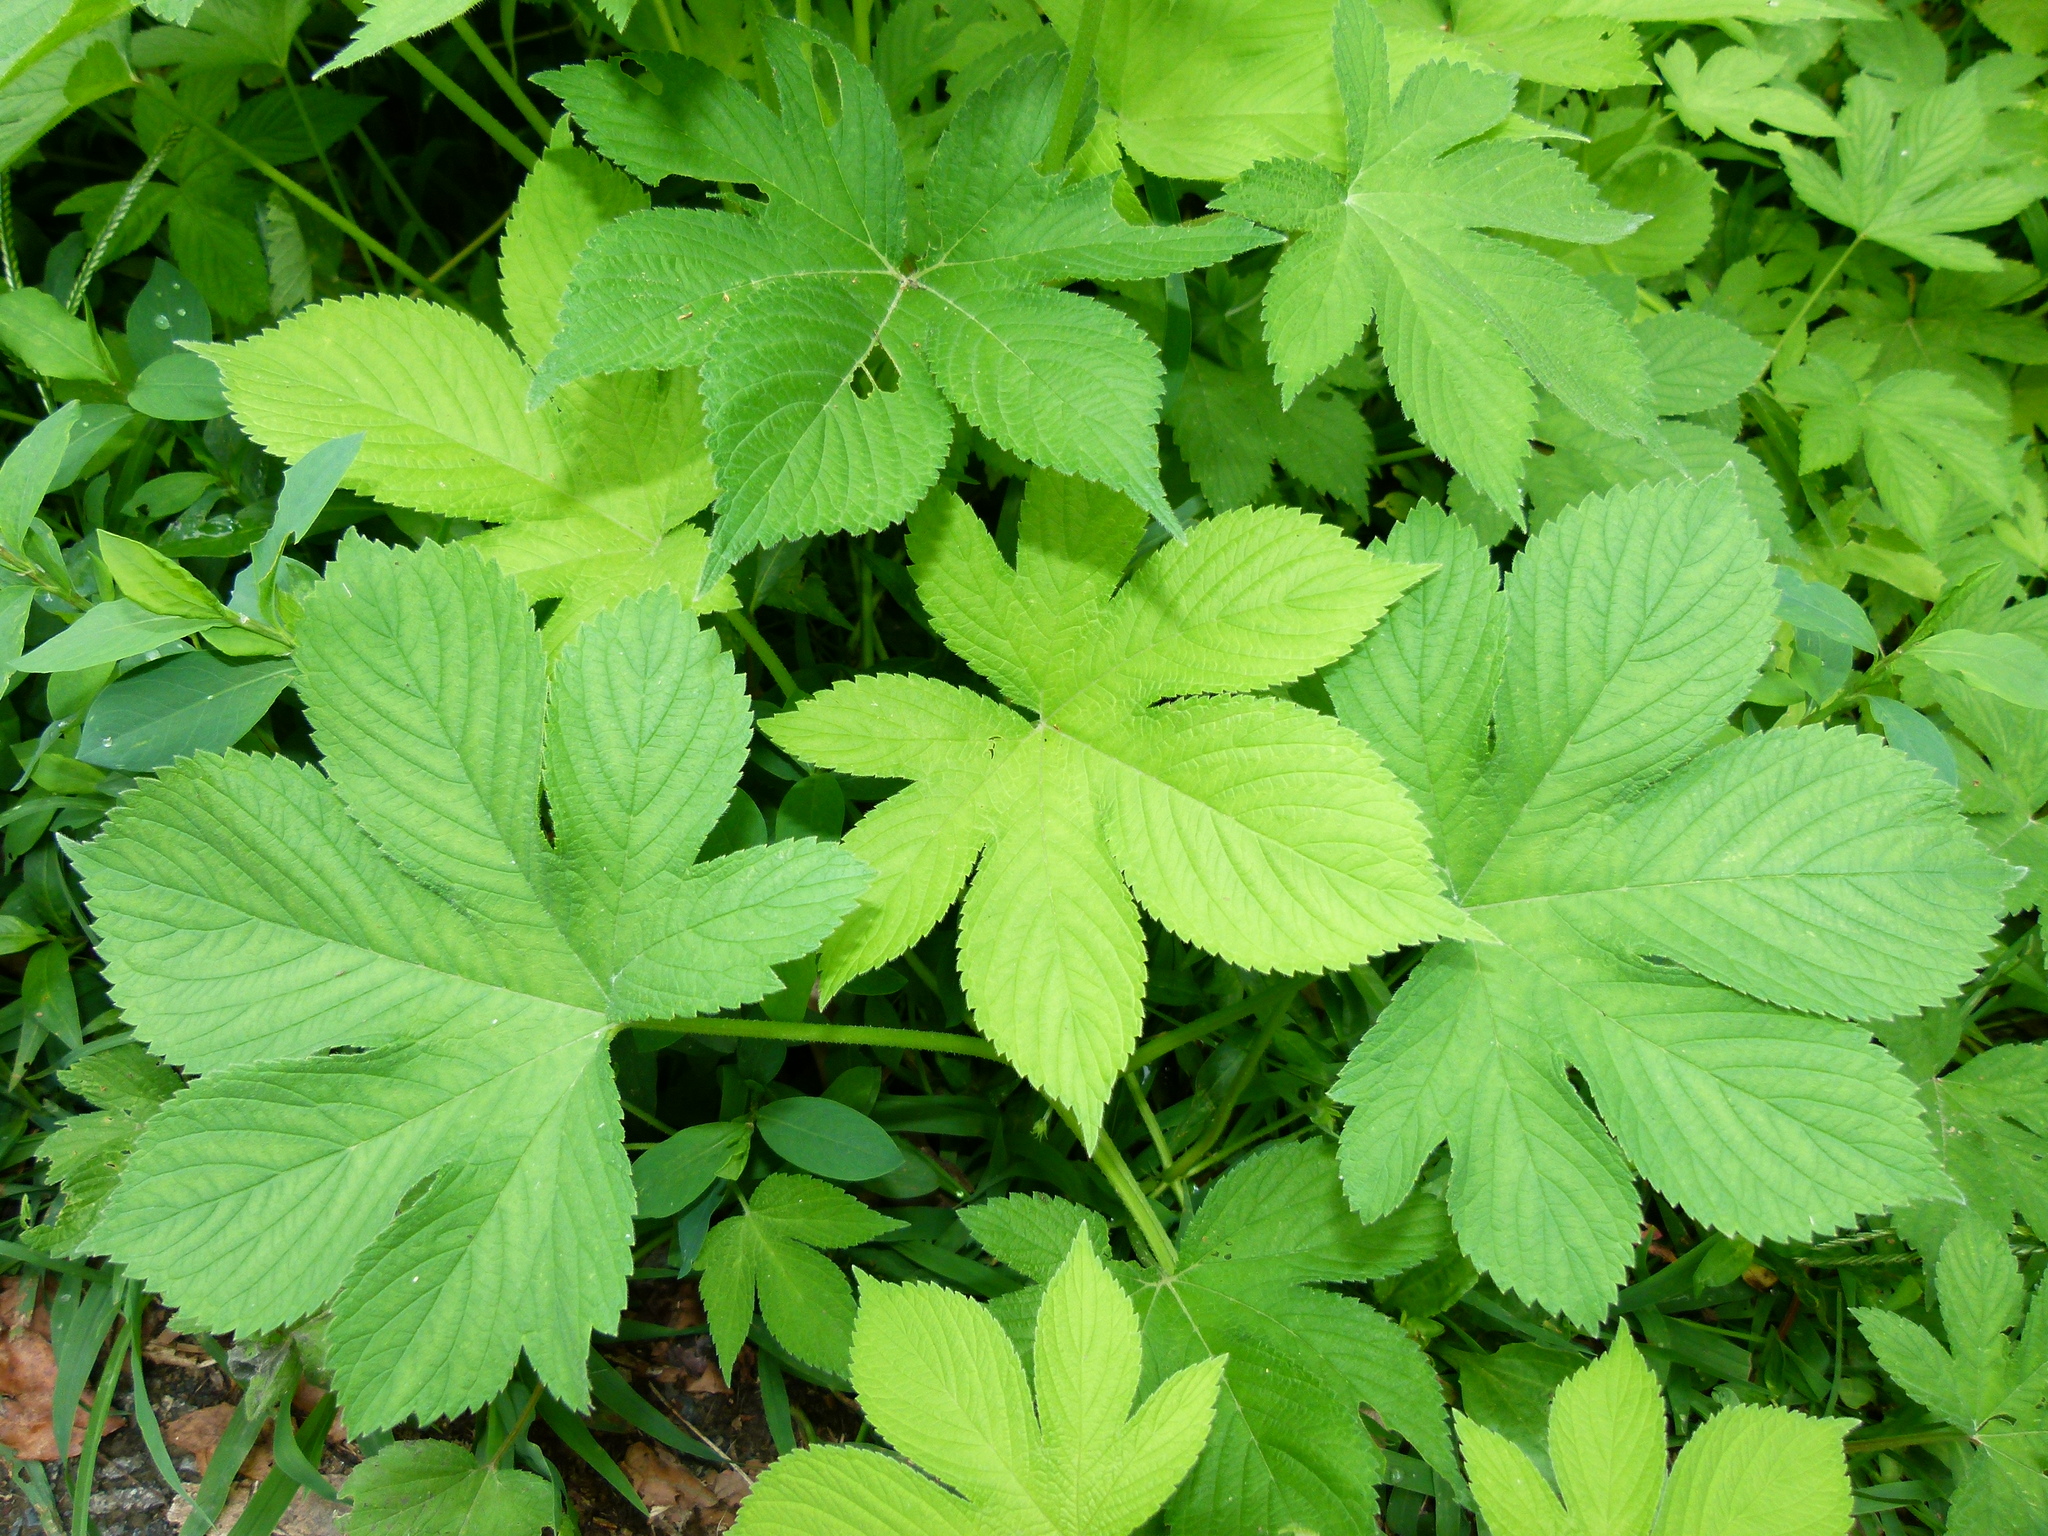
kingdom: Plantae
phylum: Tracheophyta
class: Magnoliopsida
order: Rosales
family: Cannabaceae
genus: Humulus
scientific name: Humulus scandens
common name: Japanese hop
